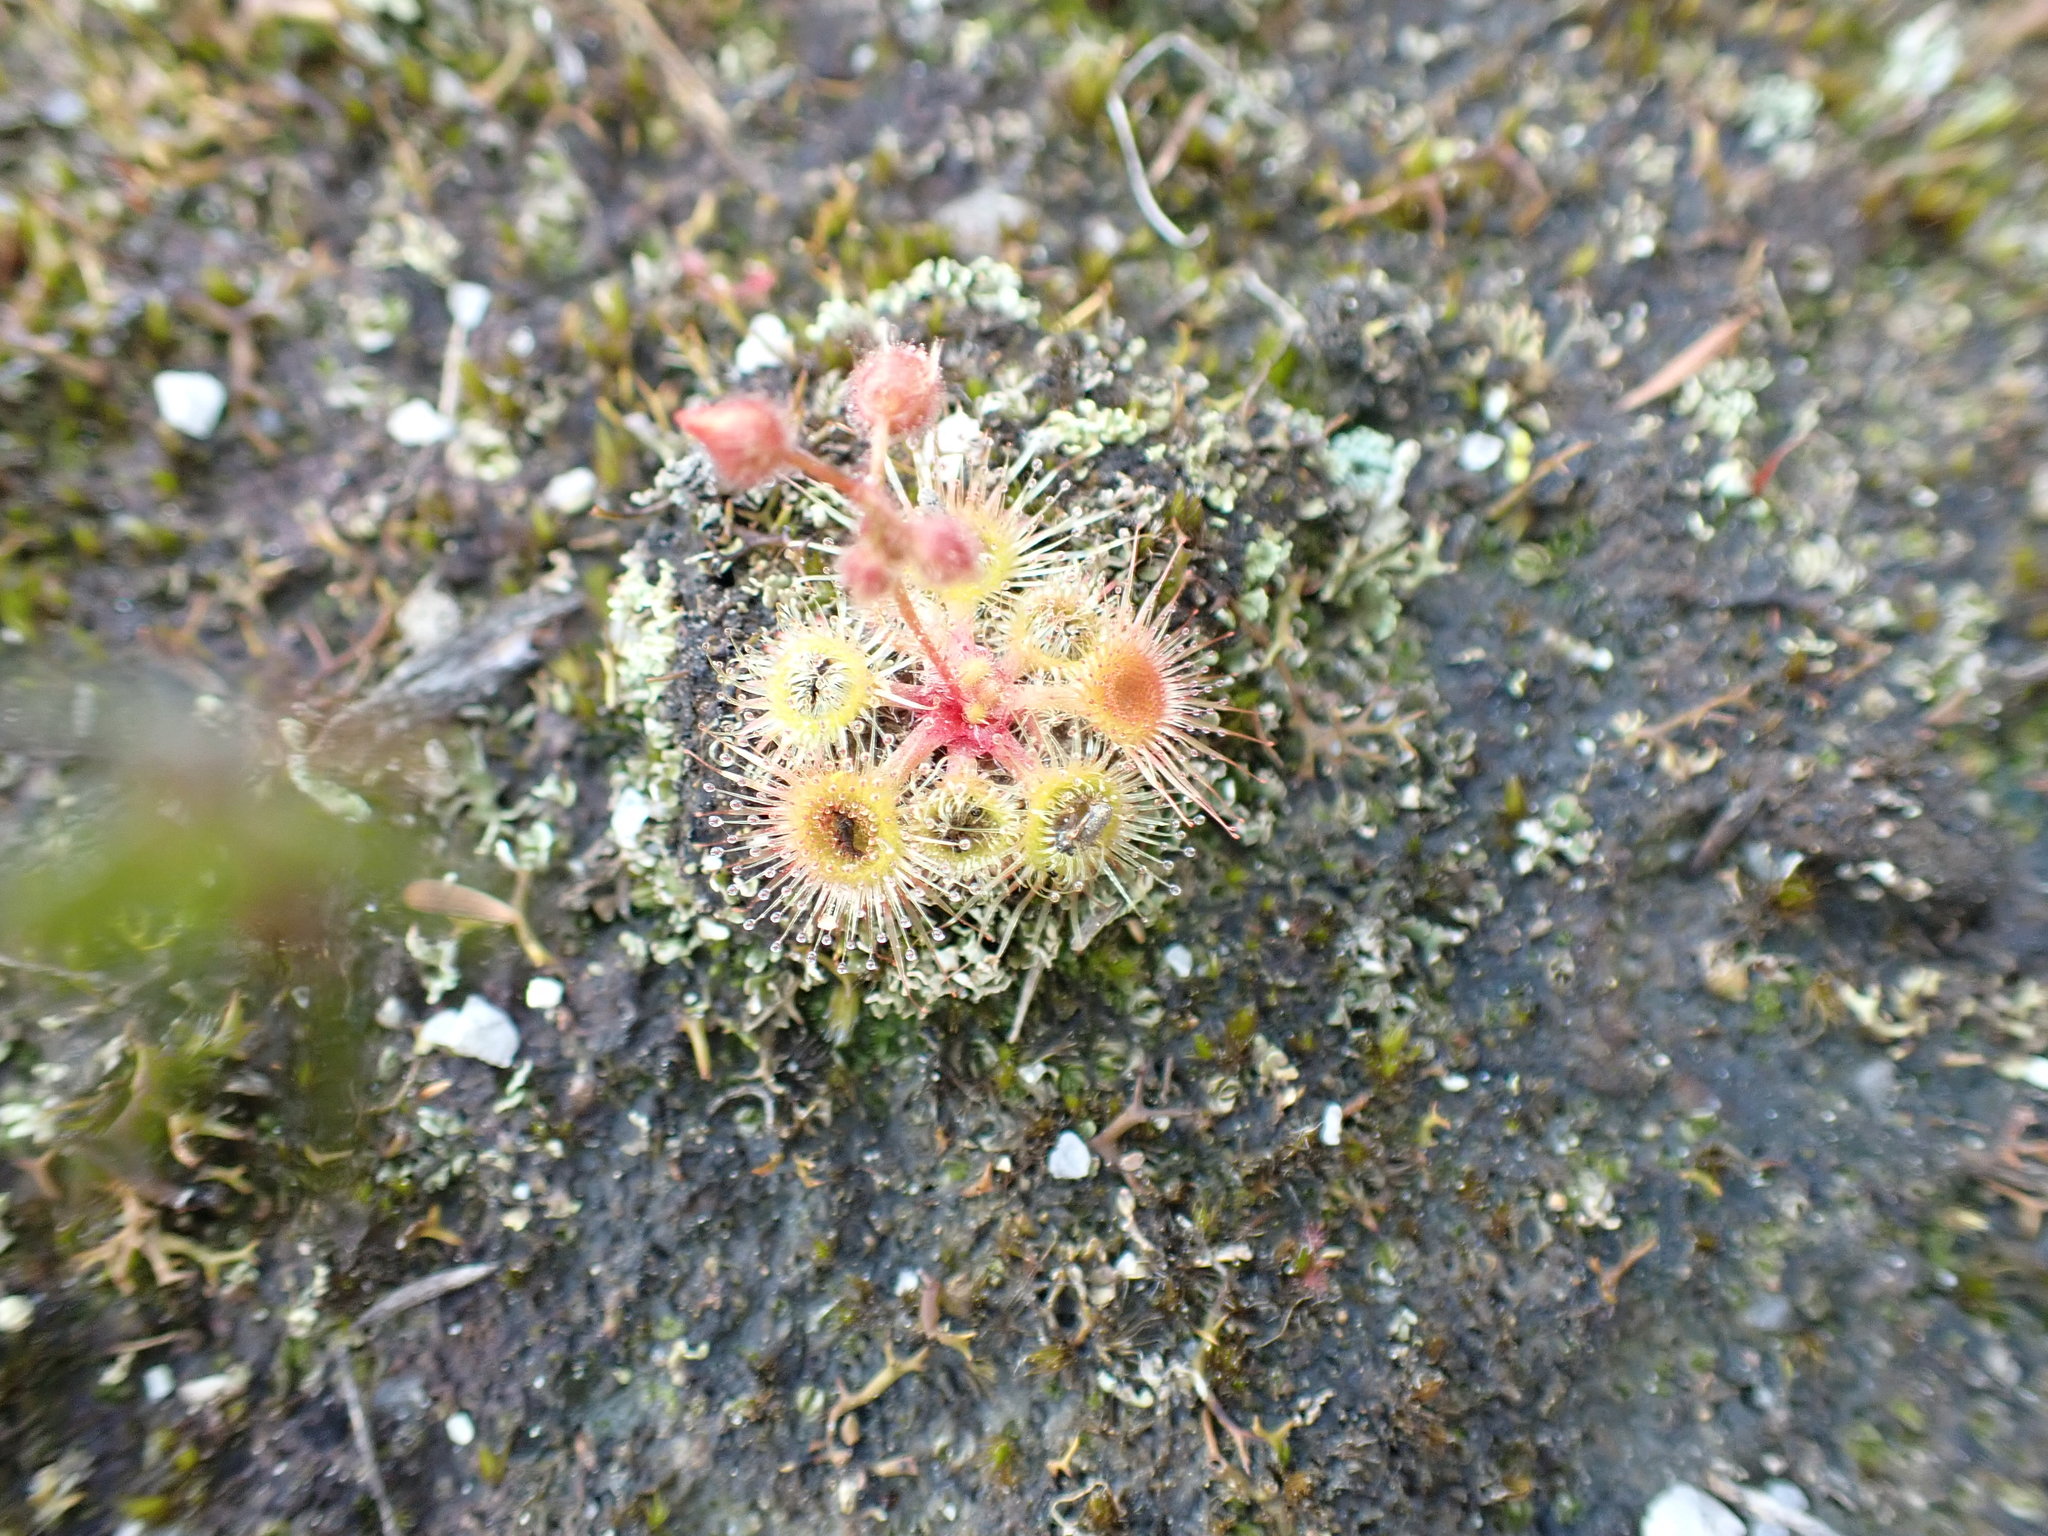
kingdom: Plantae
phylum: Tracheophyta
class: Magnoliopsida
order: Caryophyllales
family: Droseraceae
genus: Drosera
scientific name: Drosera glanduligera
